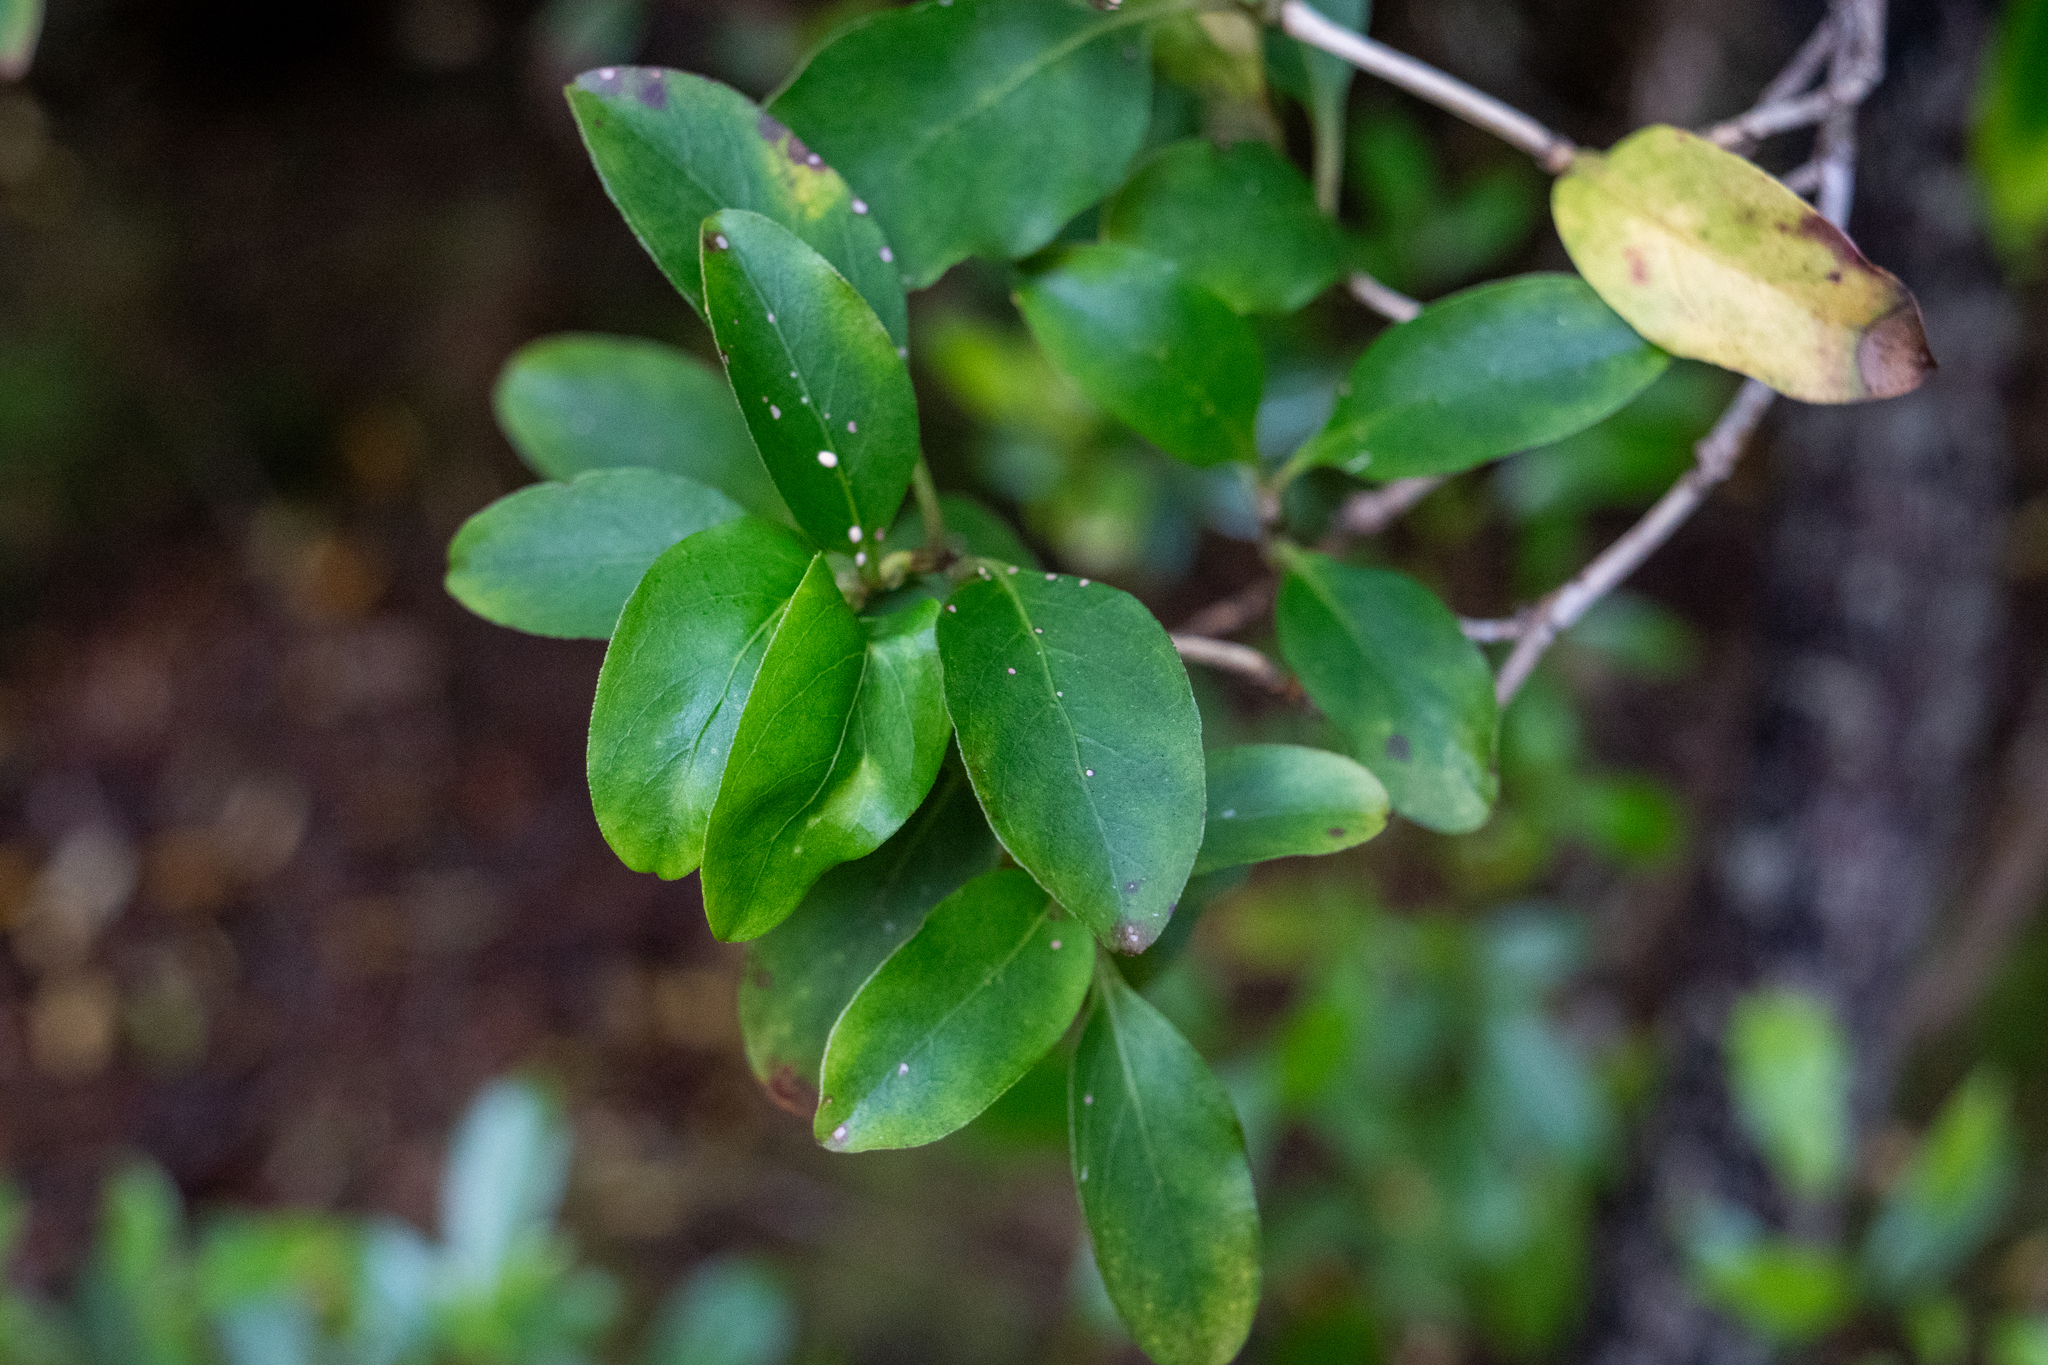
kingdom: Plantae
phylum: Tracheophyta
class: Magnoliopsida
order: Gentianales
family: Rubiaceae
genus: Coprosma
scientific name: Coprosma foetidissima
